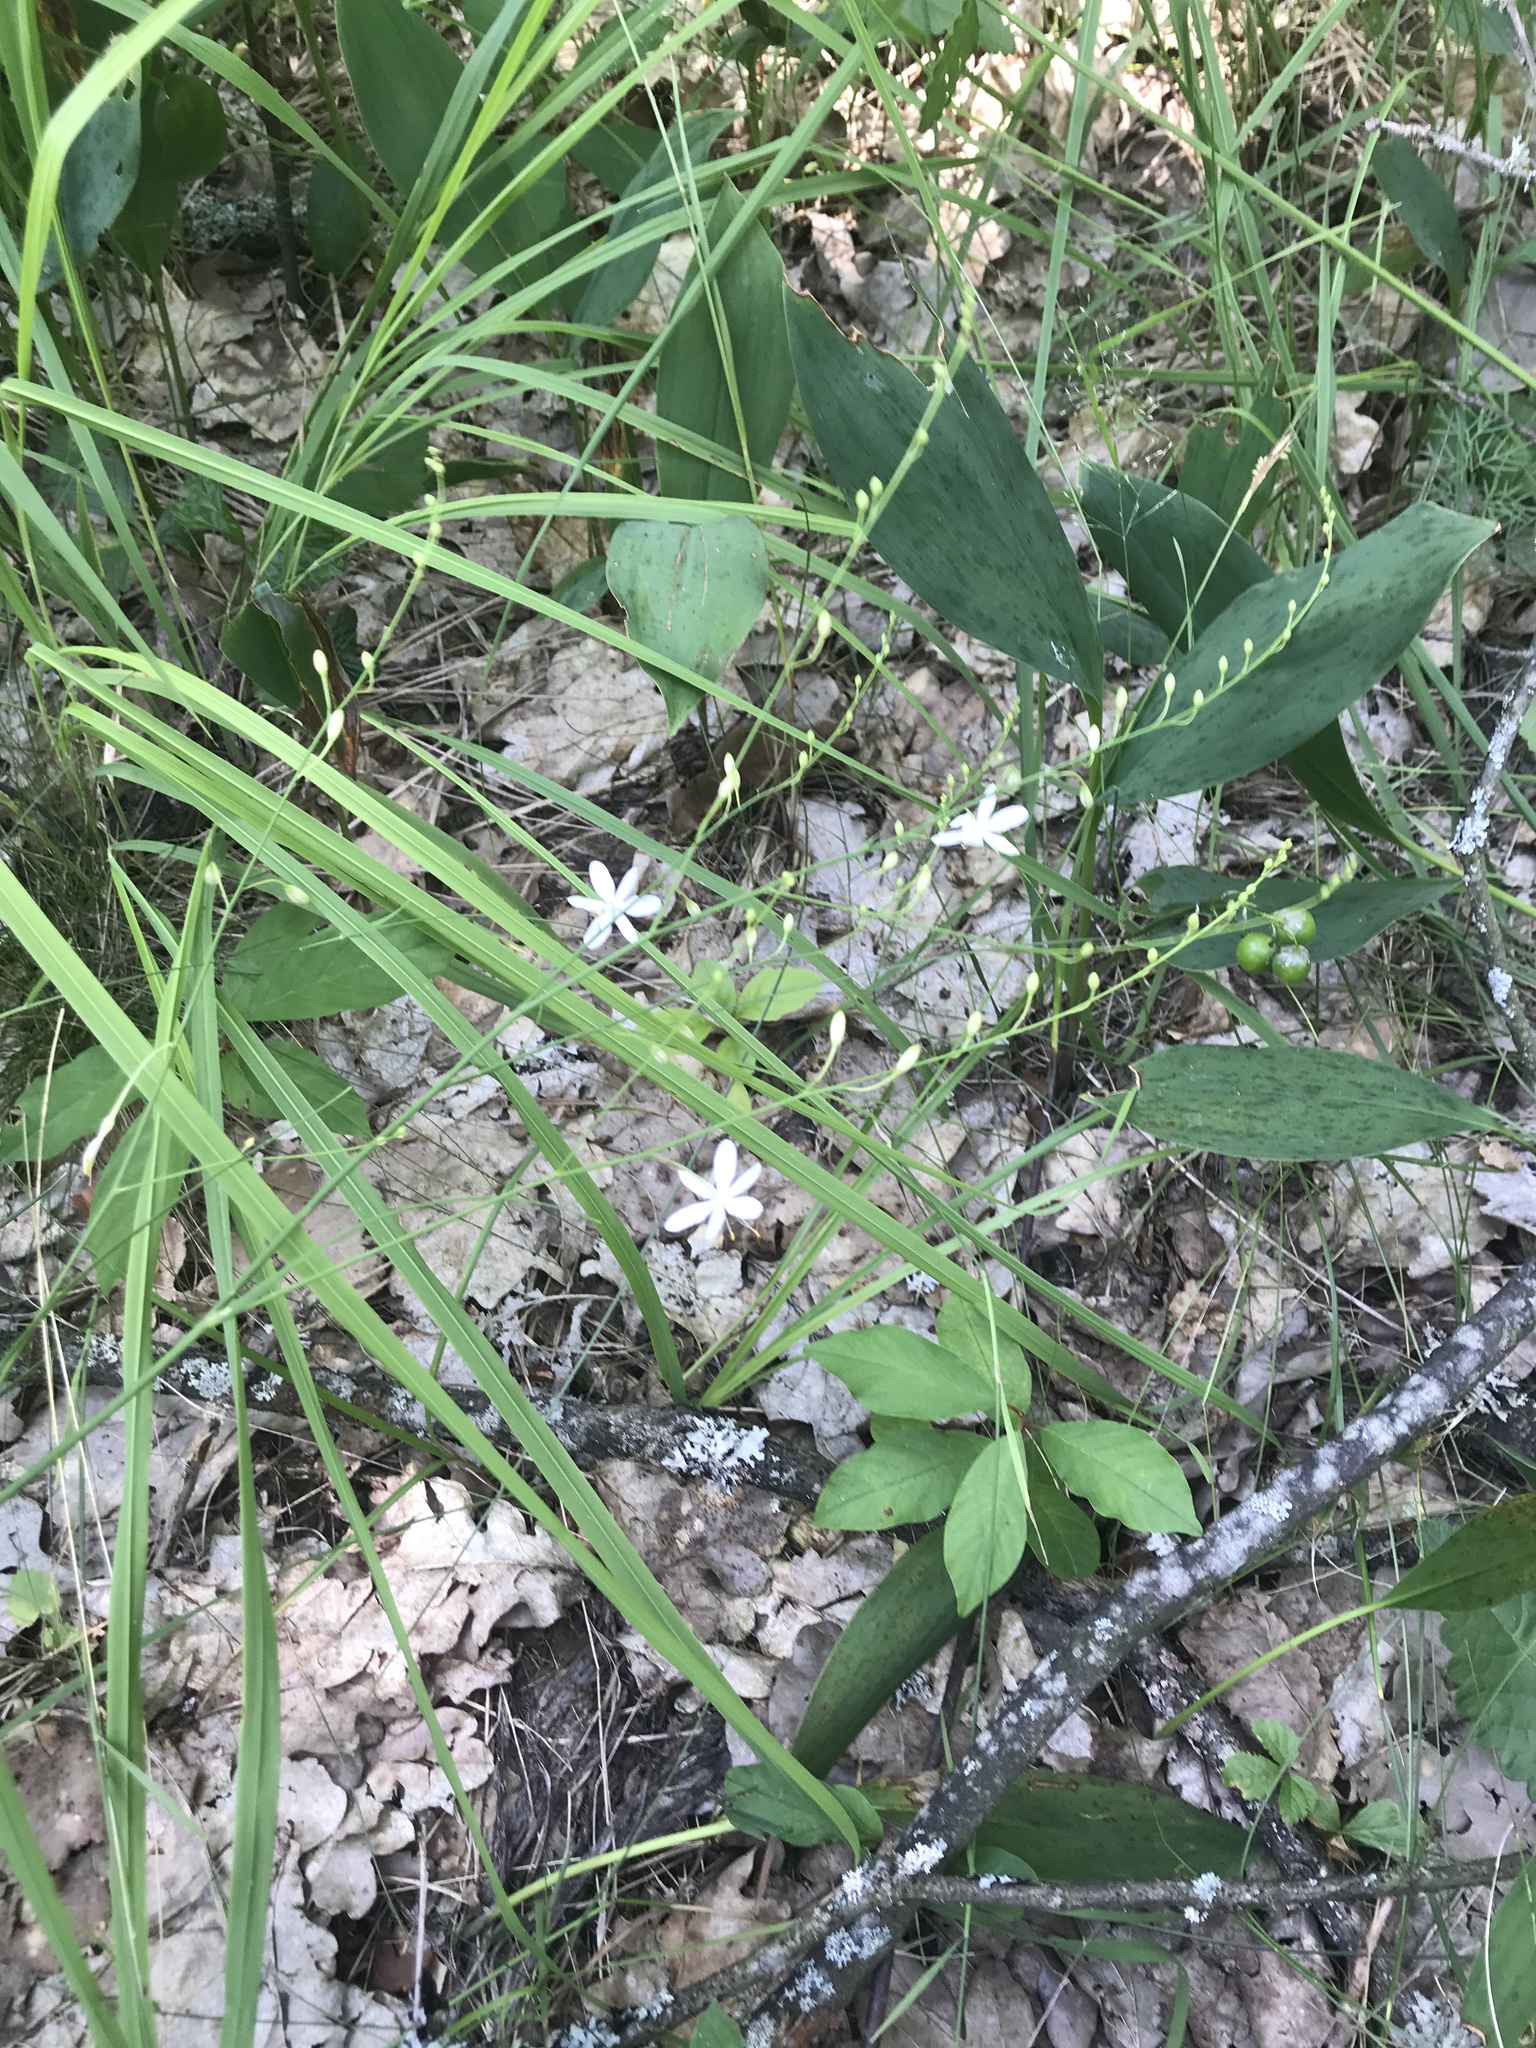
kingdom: Plantae
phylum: Tracheophyta
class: Liliopsida
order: Asparagales
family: Asparagaceae
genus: Anthericum
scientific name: Anthericum ramosum
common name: Branched st. bernard's-lily
